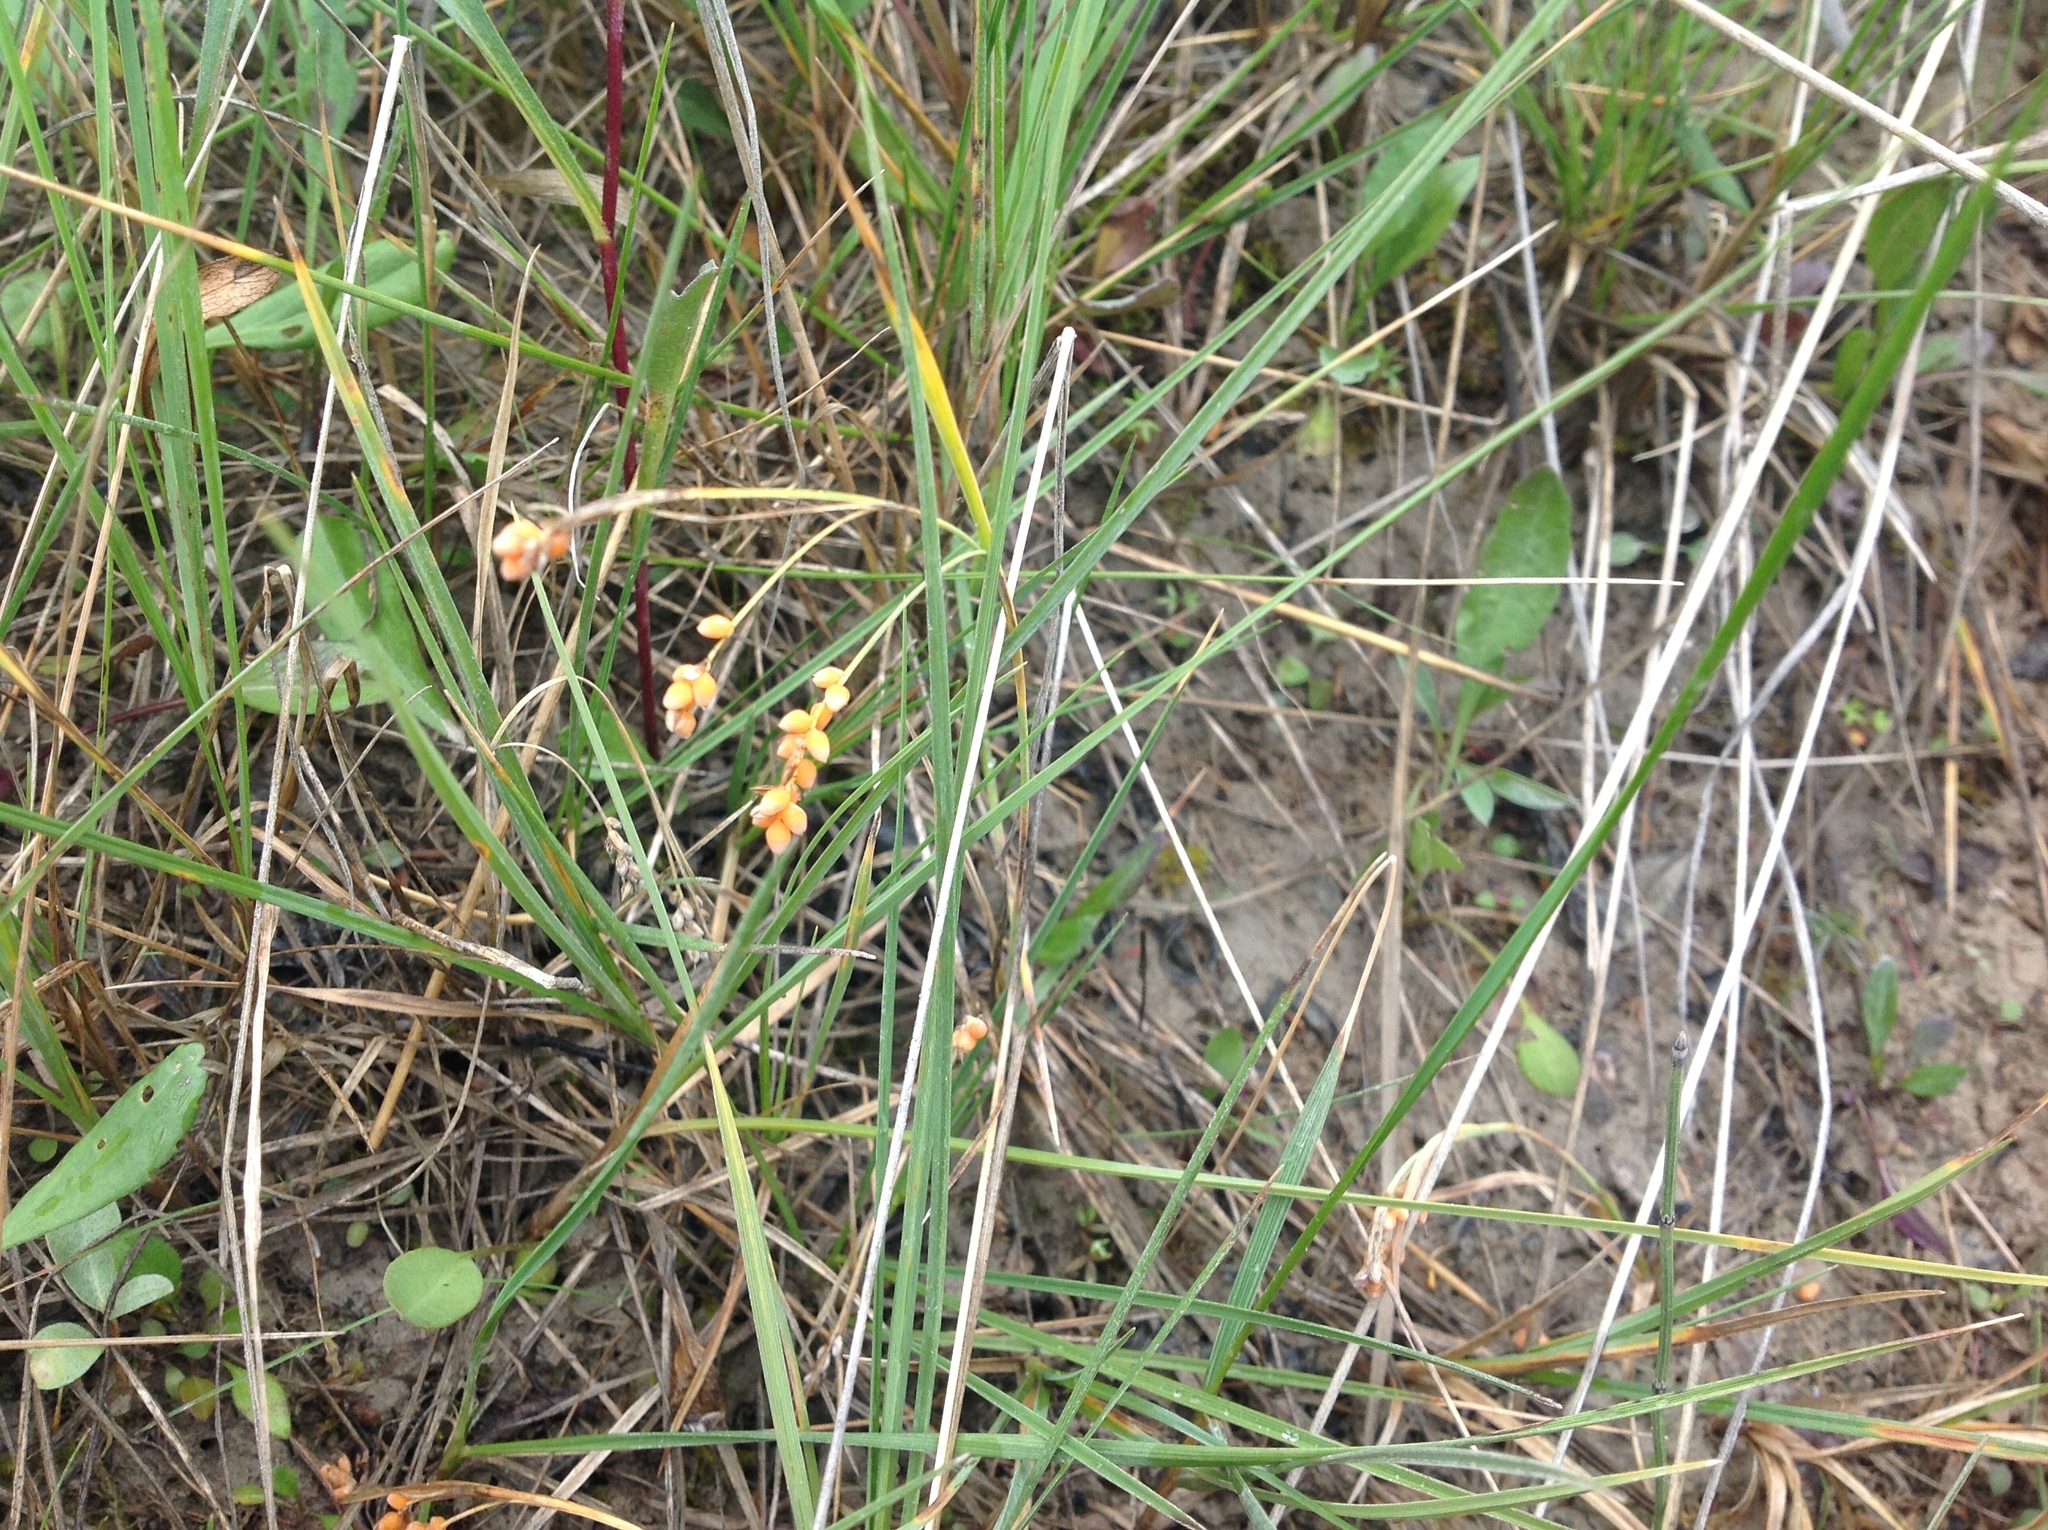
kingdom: Plantae
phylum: Tracheophyta
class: Liliopsida
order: Poales
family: Cyperaceae
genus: Carex
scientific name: Carex aurea
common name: Golden sedge
